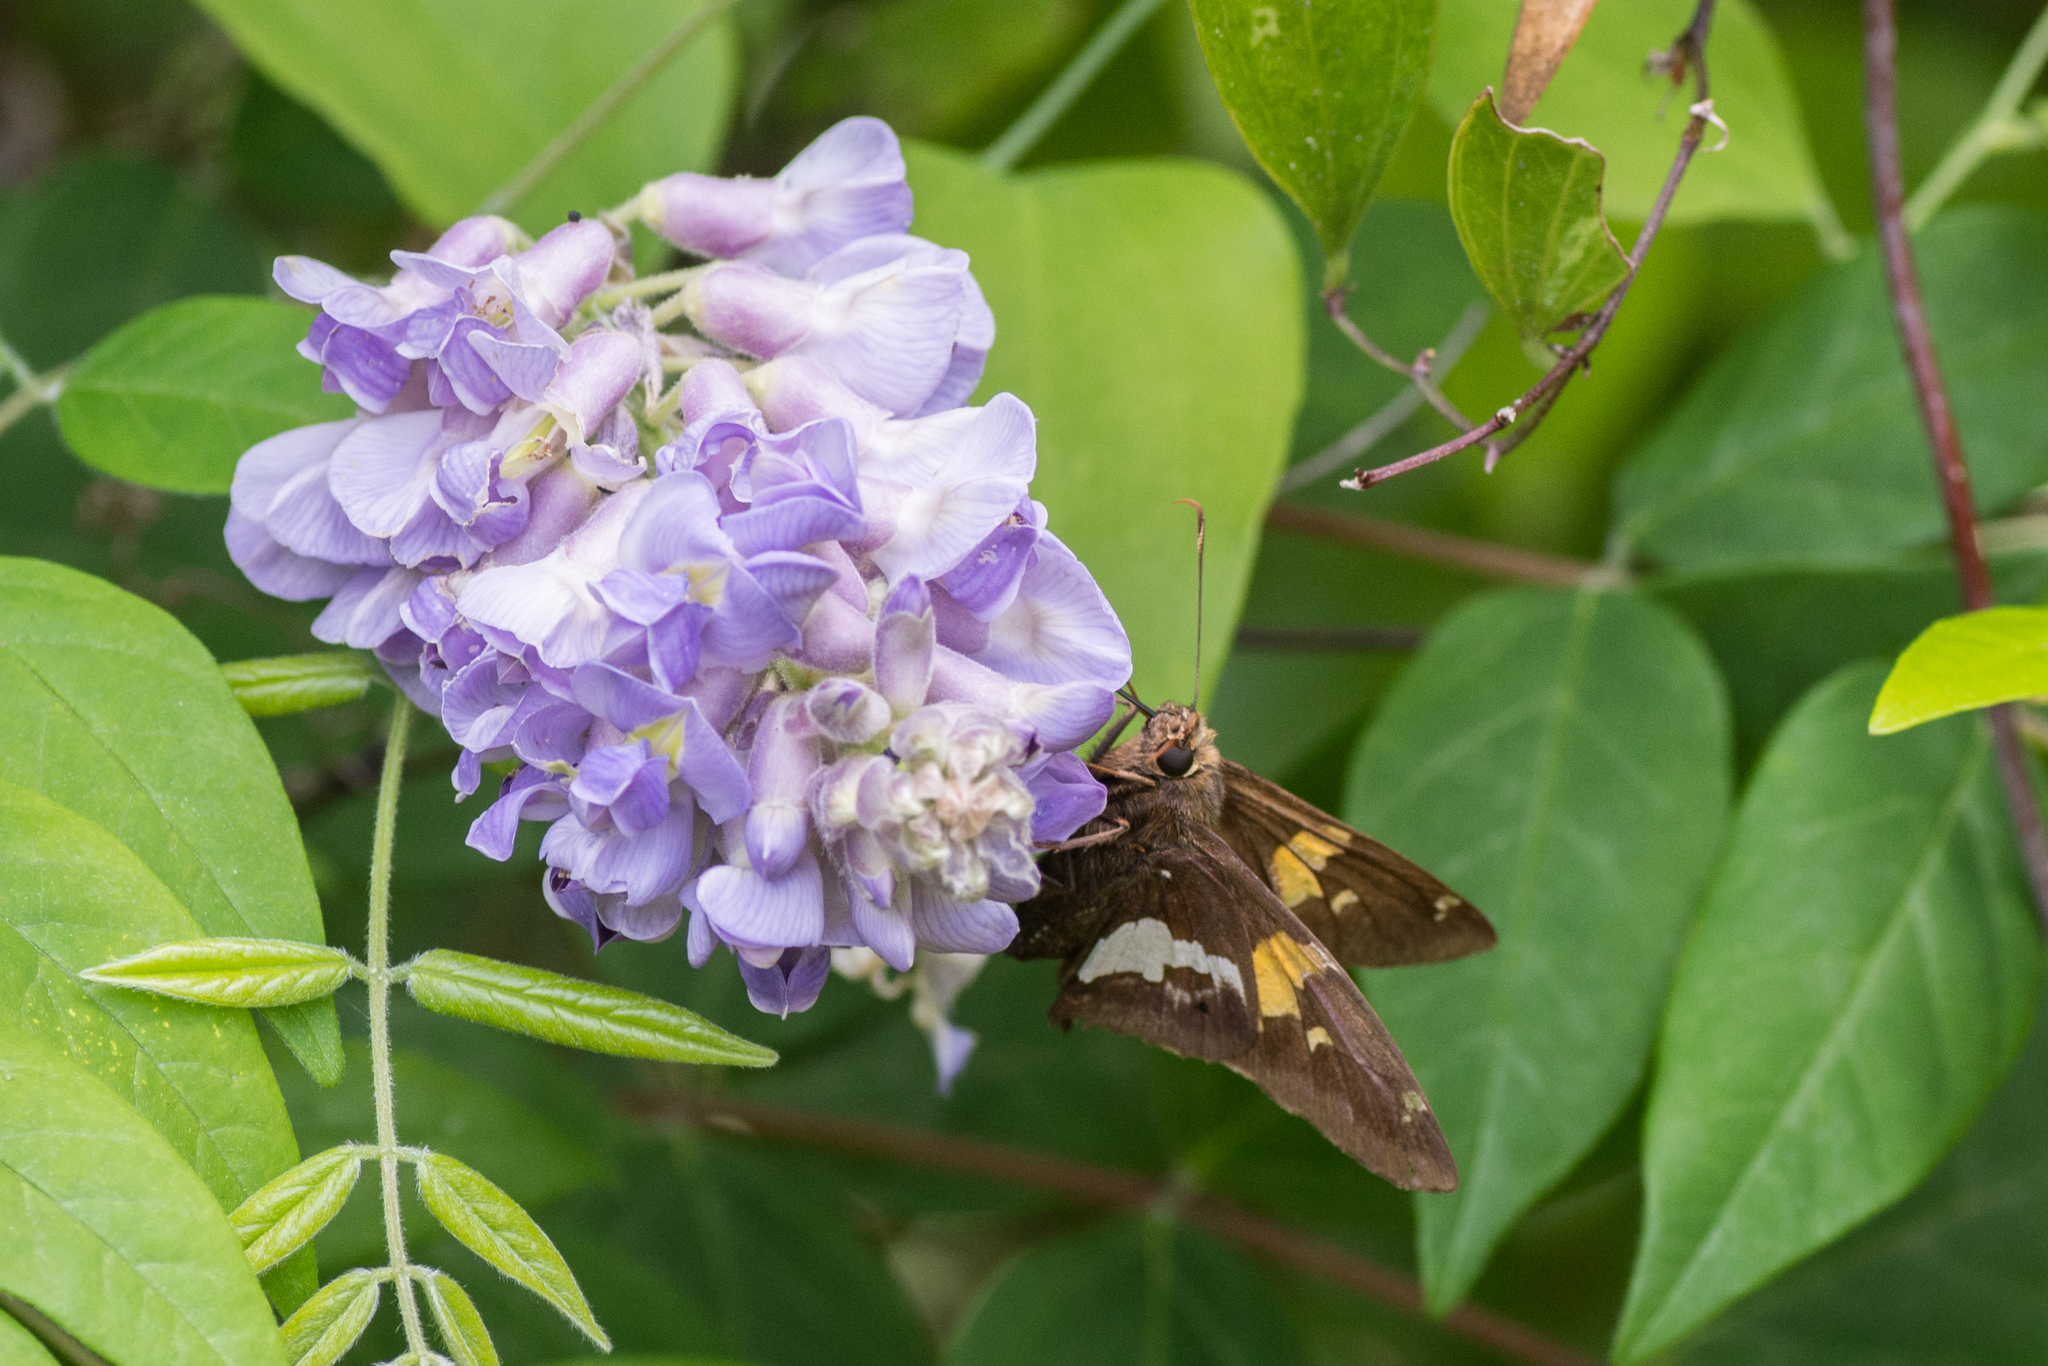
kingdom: Animalia
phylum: Arthropoda
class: Insecta
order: Lepidoptera
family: Hesperiidae
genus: Epargyreus
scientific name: Epargyreus clarus
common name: Silver-spotted skipper
